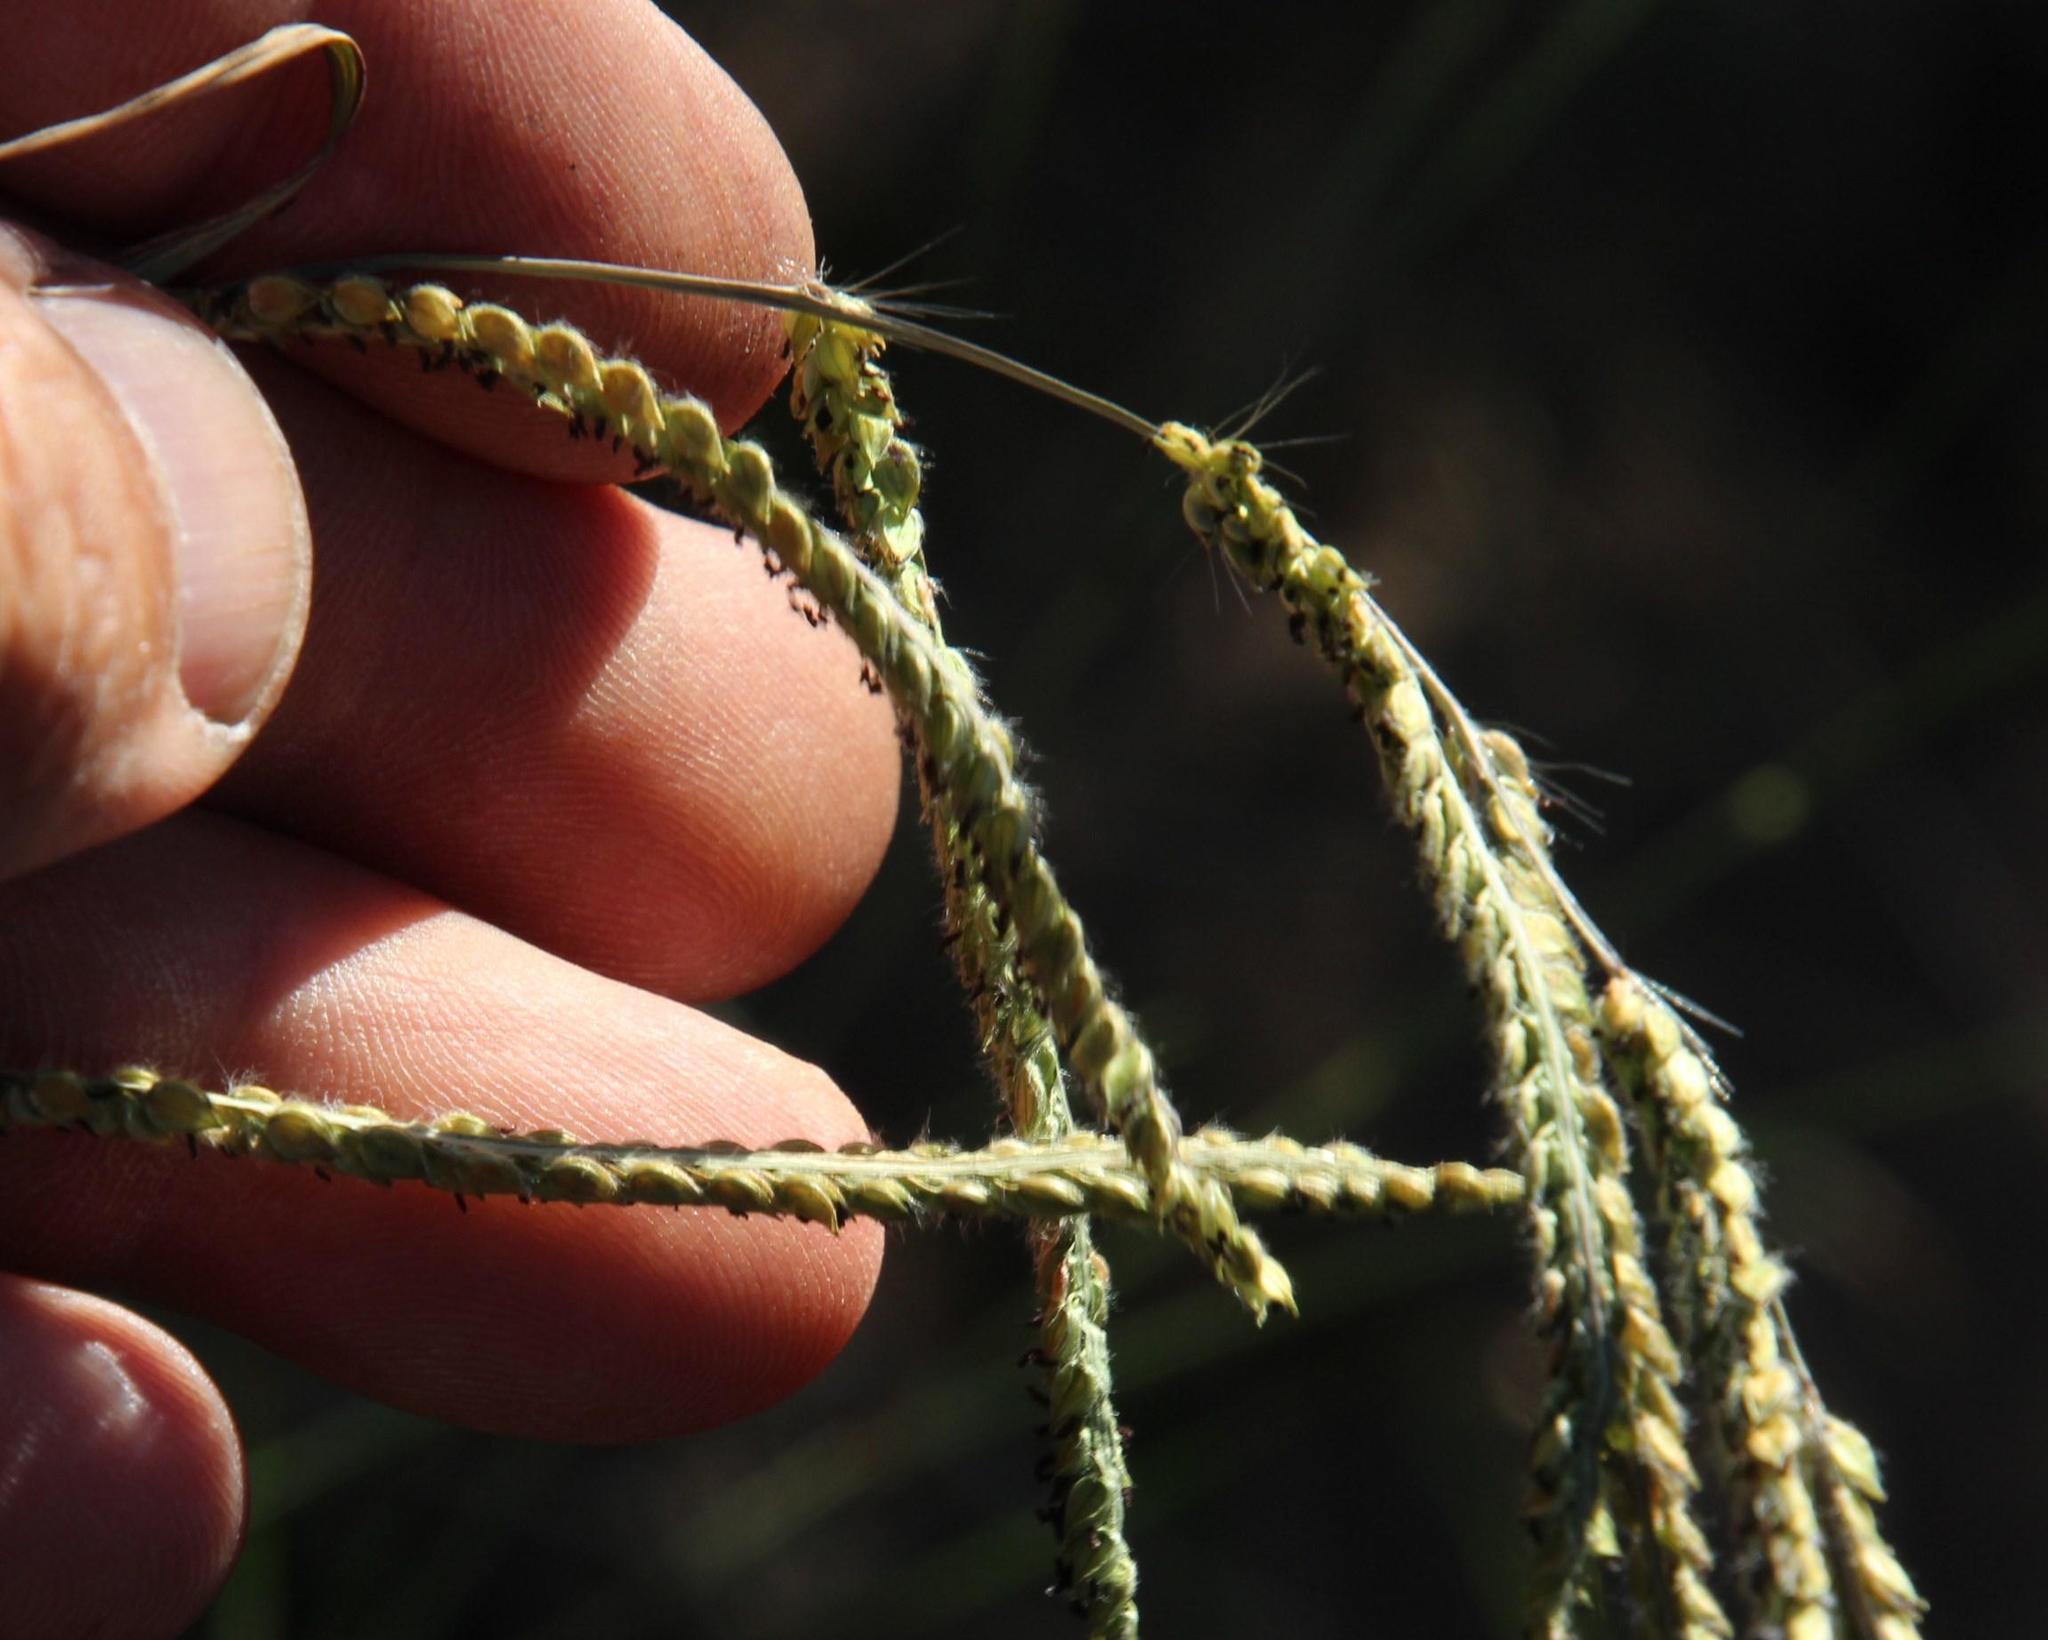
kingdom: Plantae
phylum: Tracheophyta
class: Liliopsida
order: Poales
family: Poaceae
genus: Paspalum
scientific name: Paspalum dilatatum
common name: Dallisgrass
